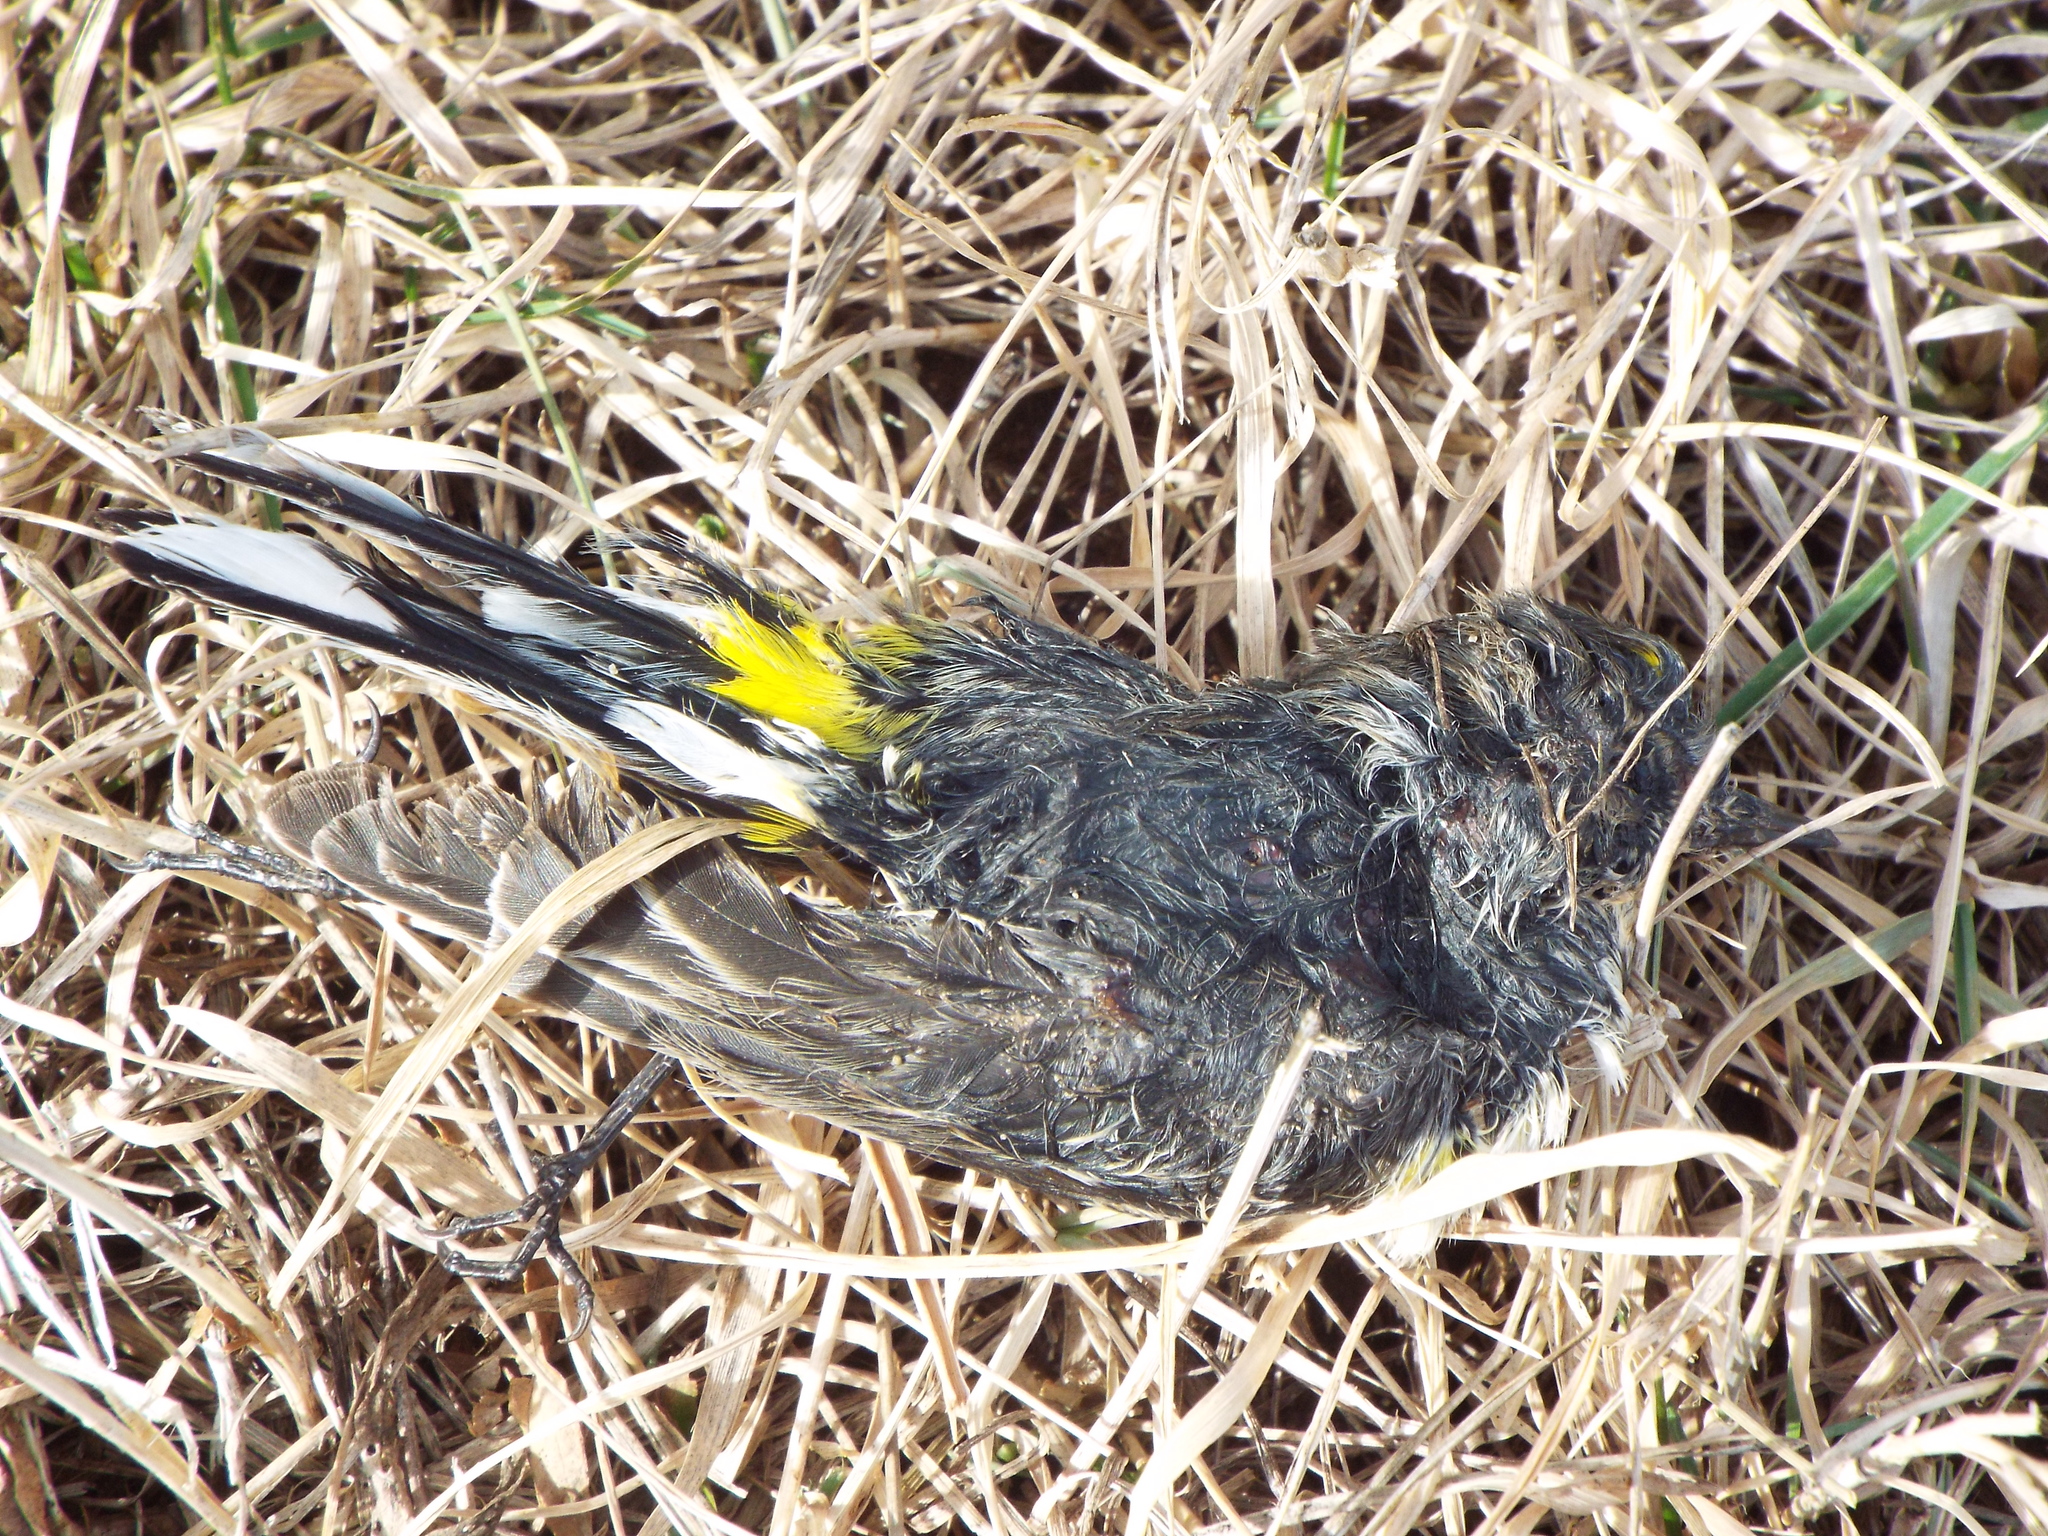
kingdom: Animalia
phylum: Chordata
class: Aves
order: Passeriformes
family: Parulidae
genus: Setophaga
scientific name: Setophaga coronata
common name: Myrtle warbler
